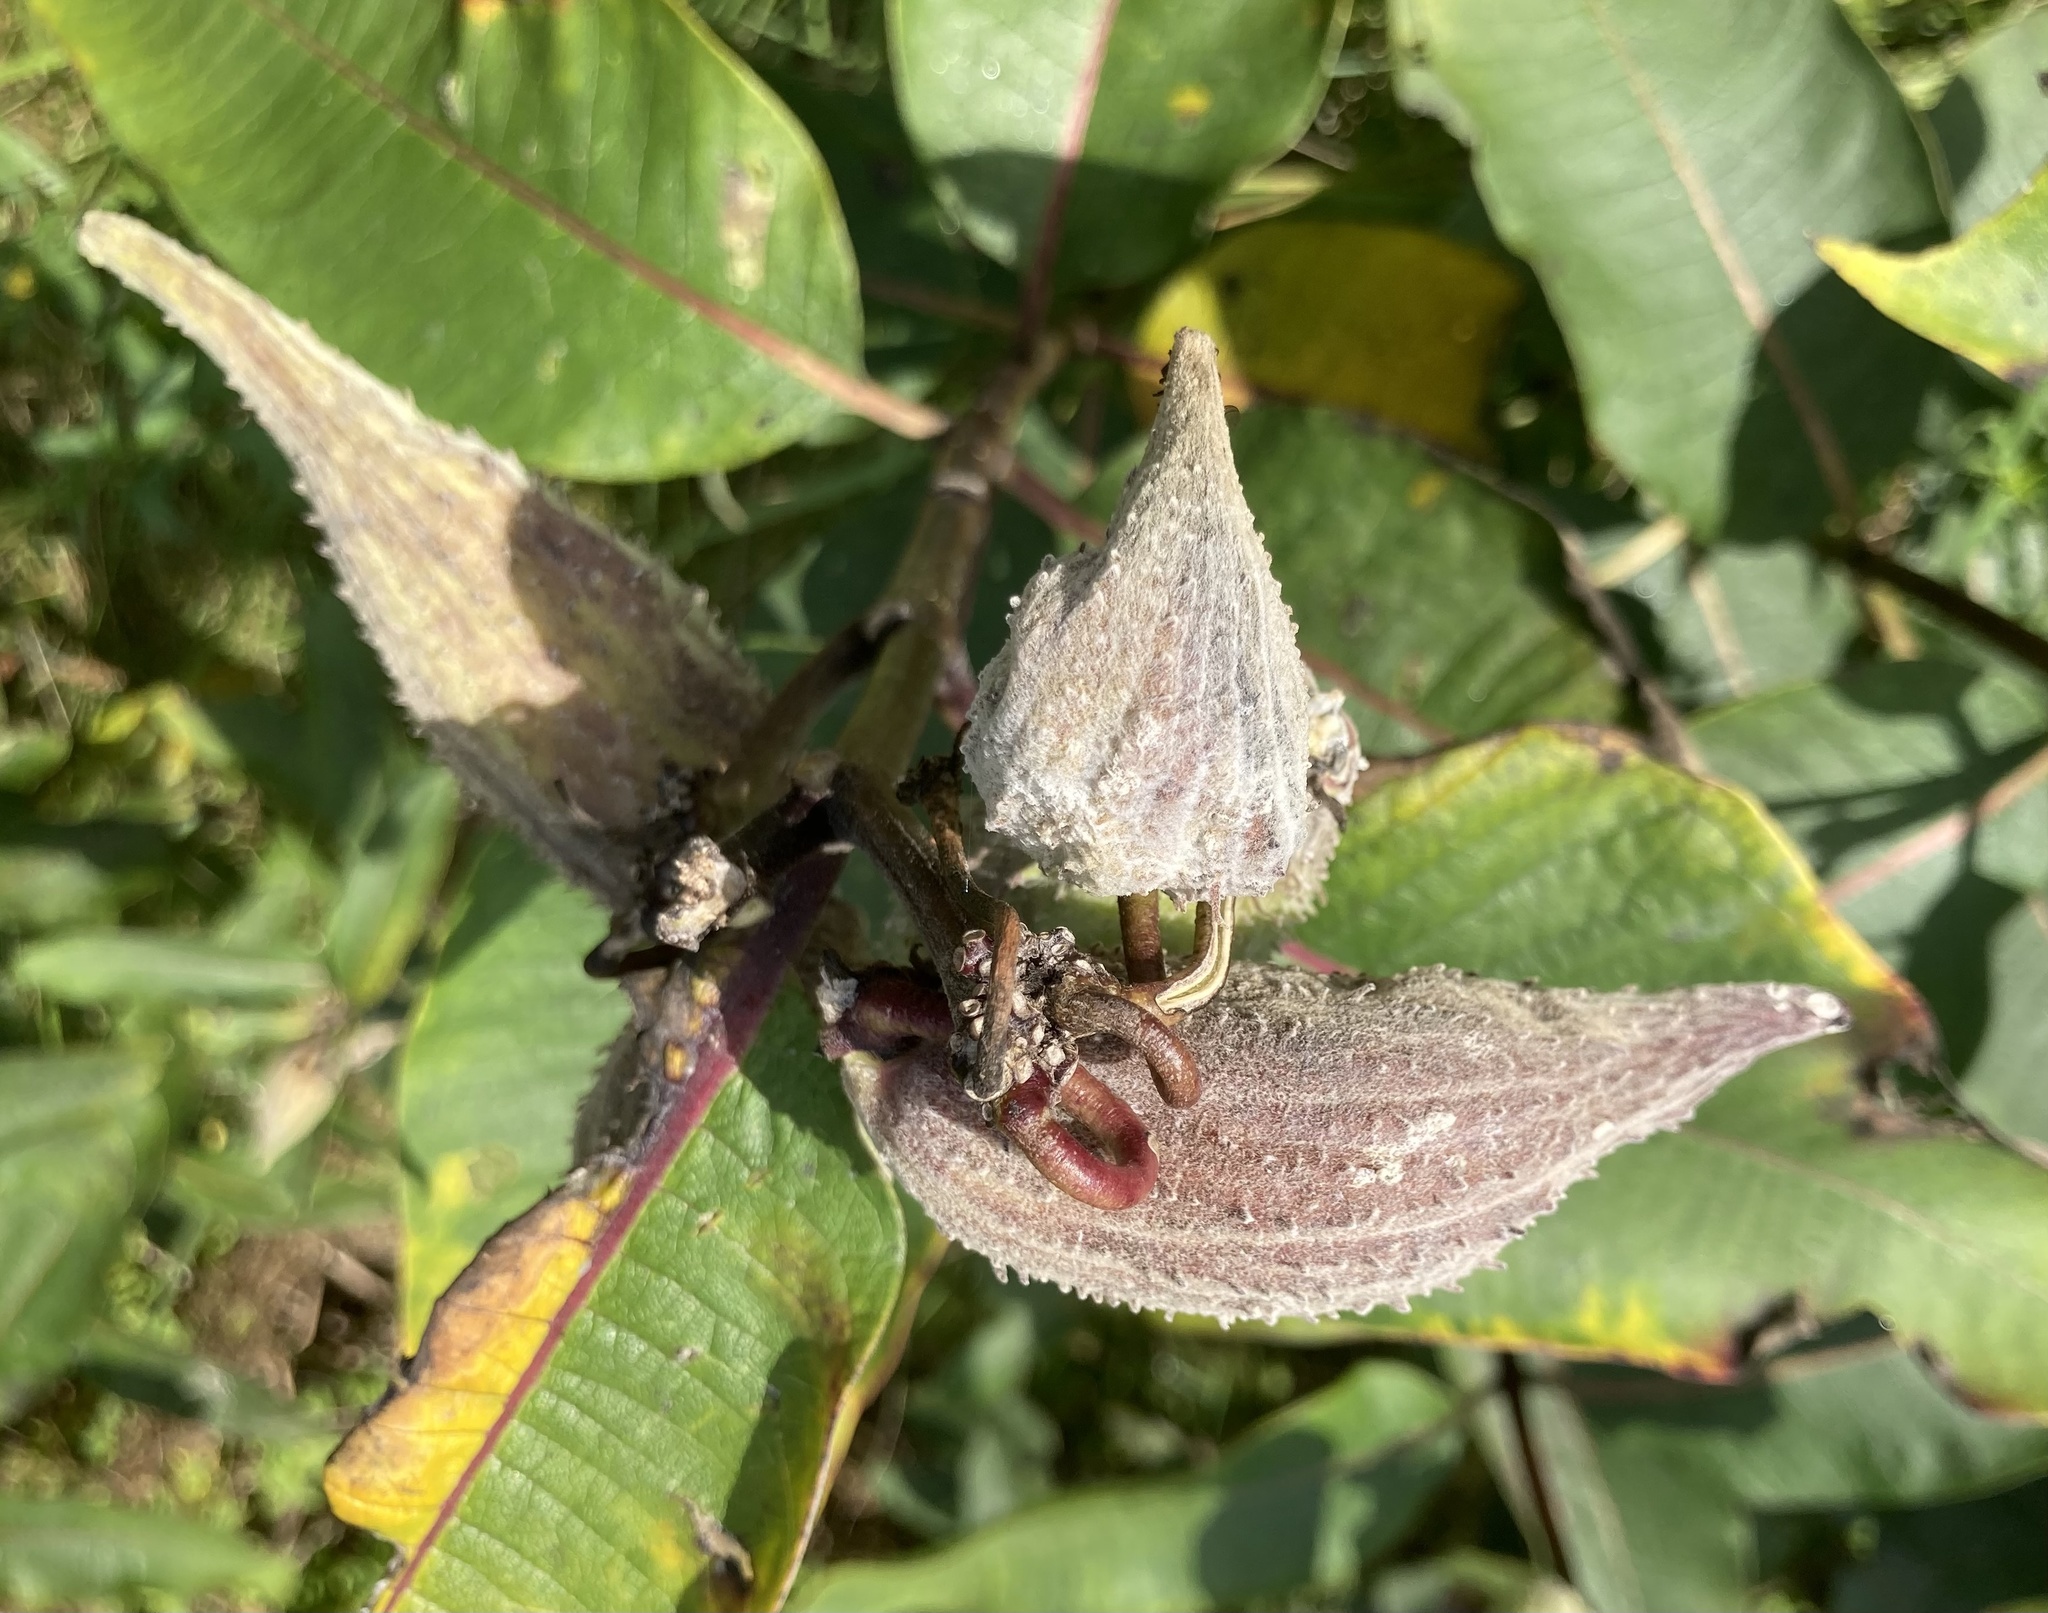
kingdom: Plantae
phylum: Tracheophyta
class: Magnoliopsida
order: Gentianales
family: Apocynaceae
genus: Asclepias
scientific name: Asclepias syriaca
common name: Common milkweed
